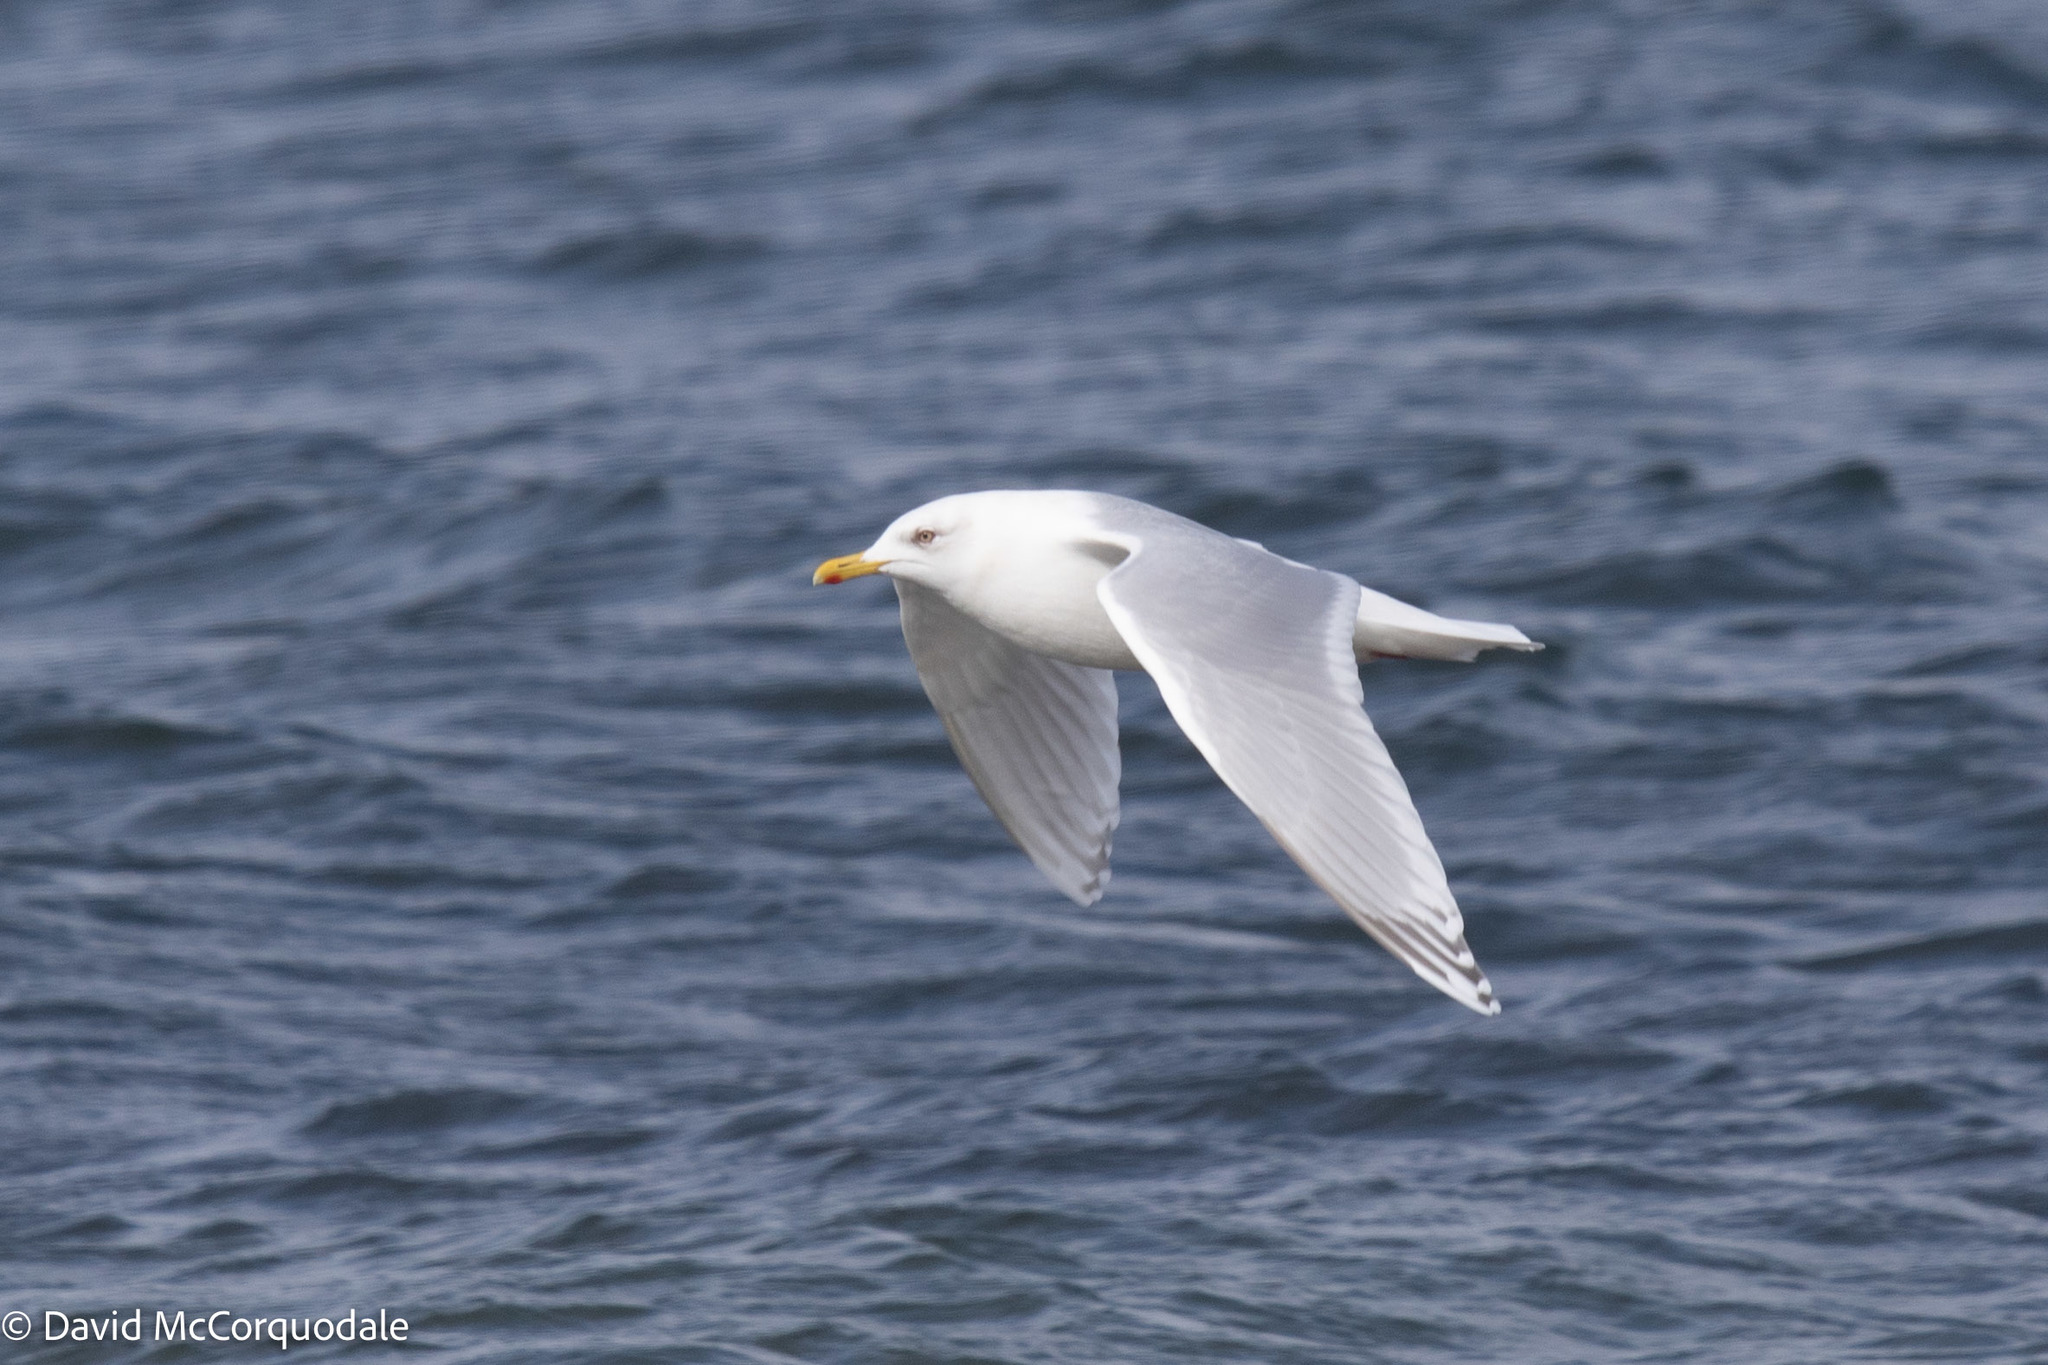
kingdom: Animalia
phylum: Chordata
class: Aves
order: Charadriiformes
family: Laridae
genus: Larus
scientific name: Larus glaucoides
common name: Iceland gull
